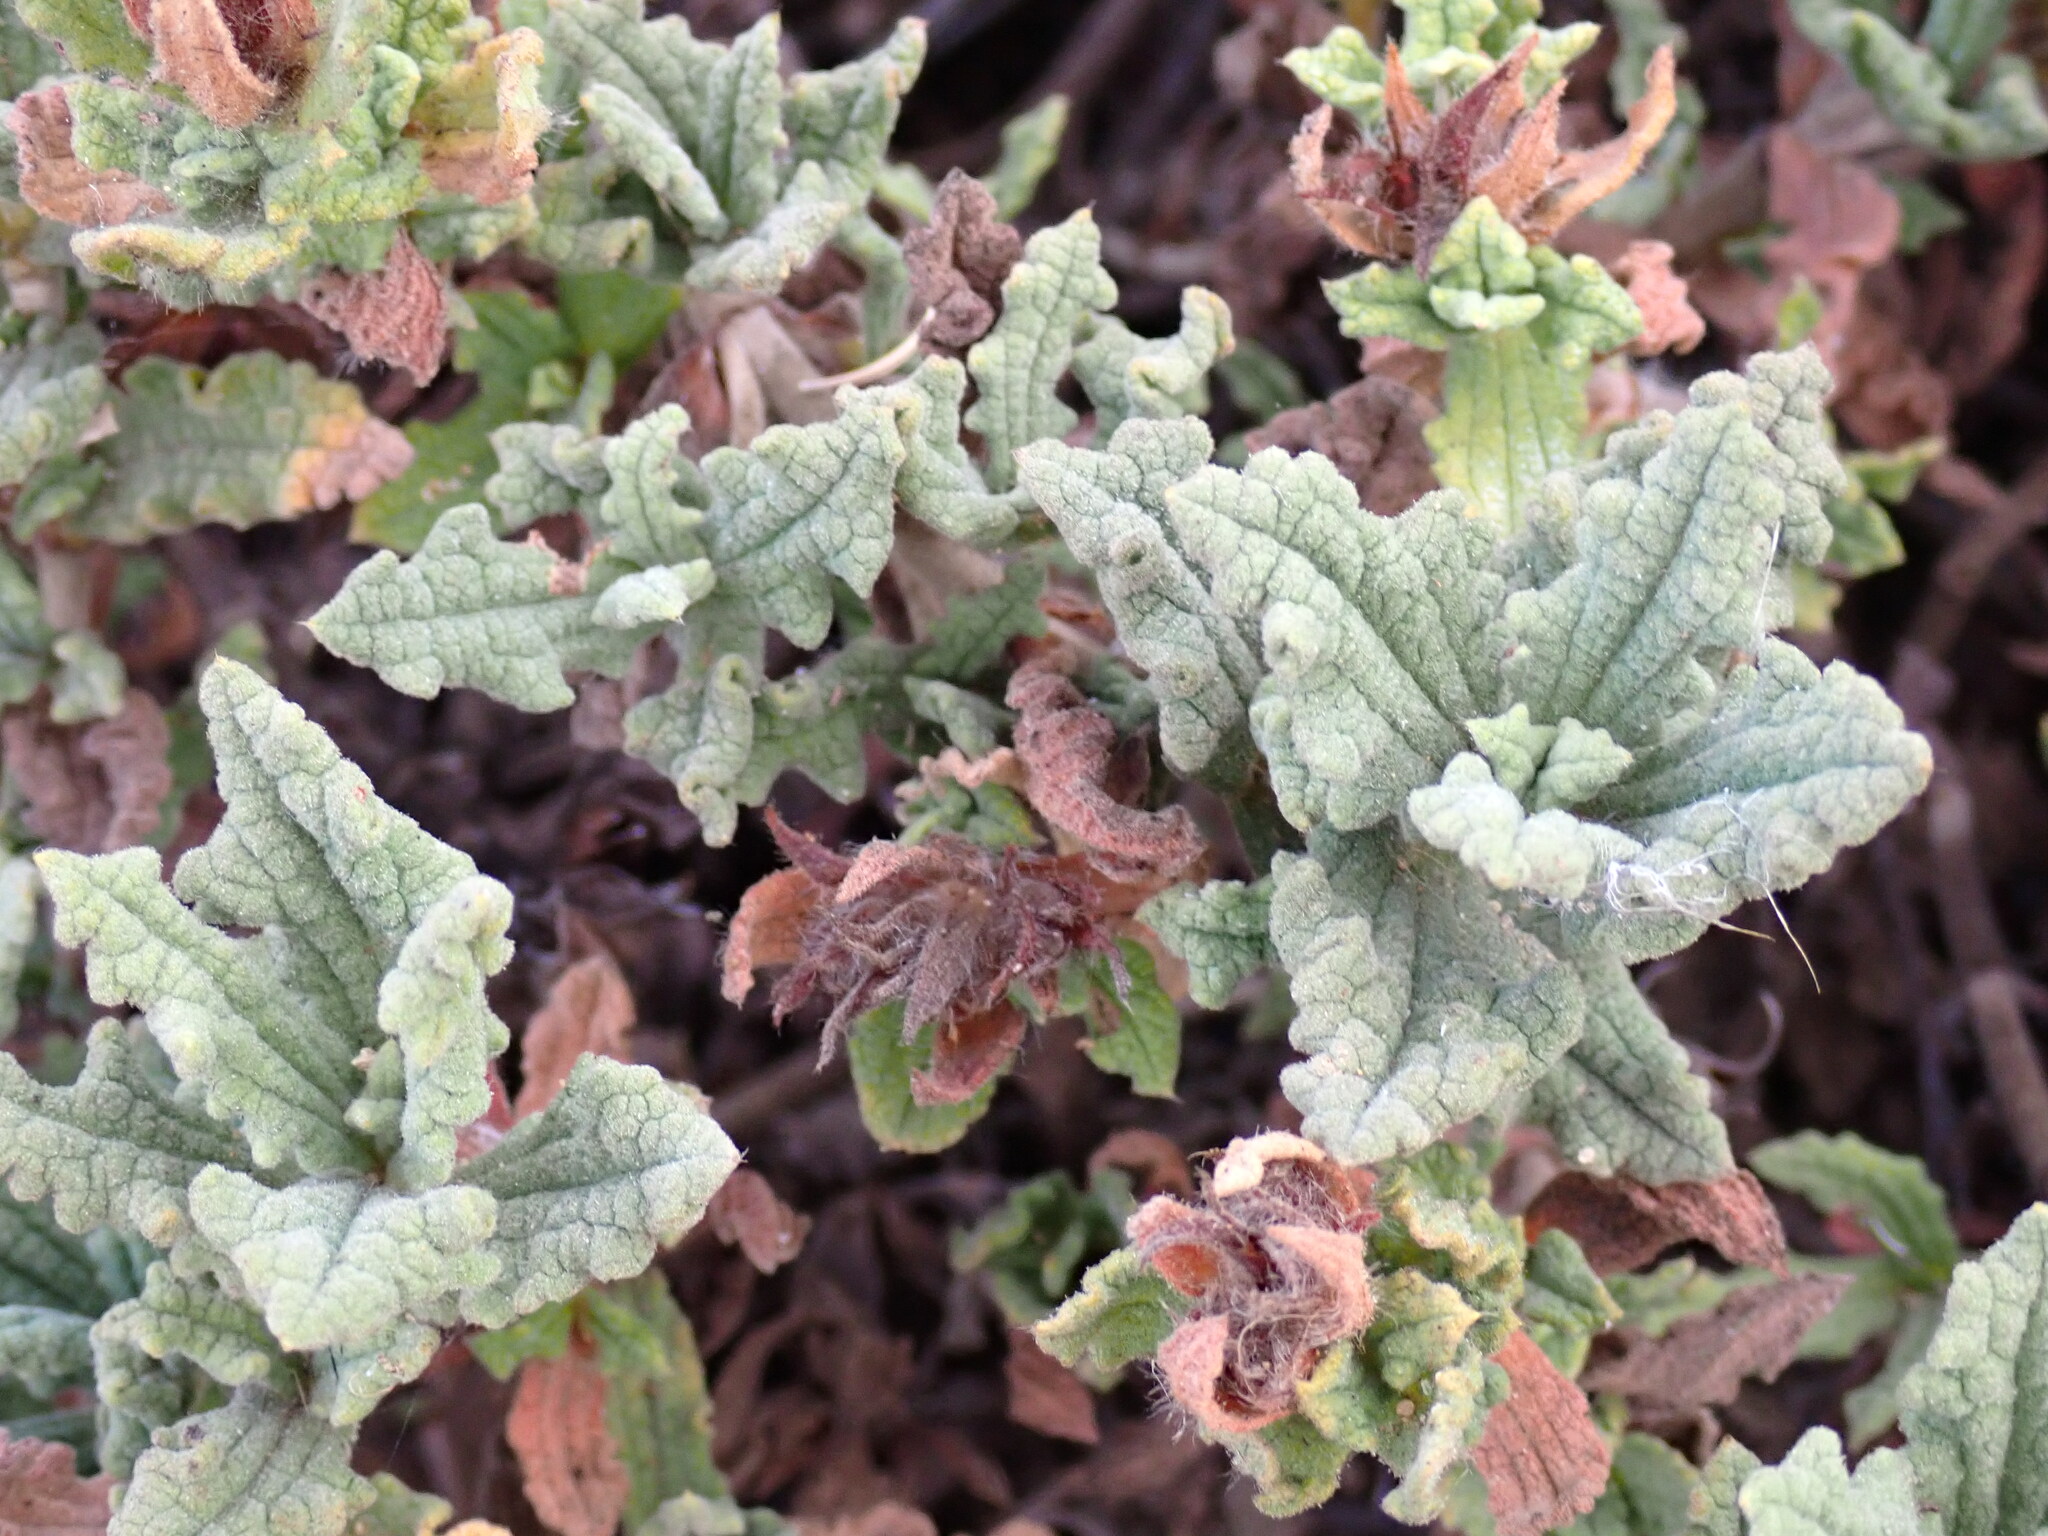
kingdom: Plantae
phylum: Tracheophyta
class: Magnoliopsida
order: Malvales
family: Cistaceae
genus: Cistus
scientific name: Cistus crispus
